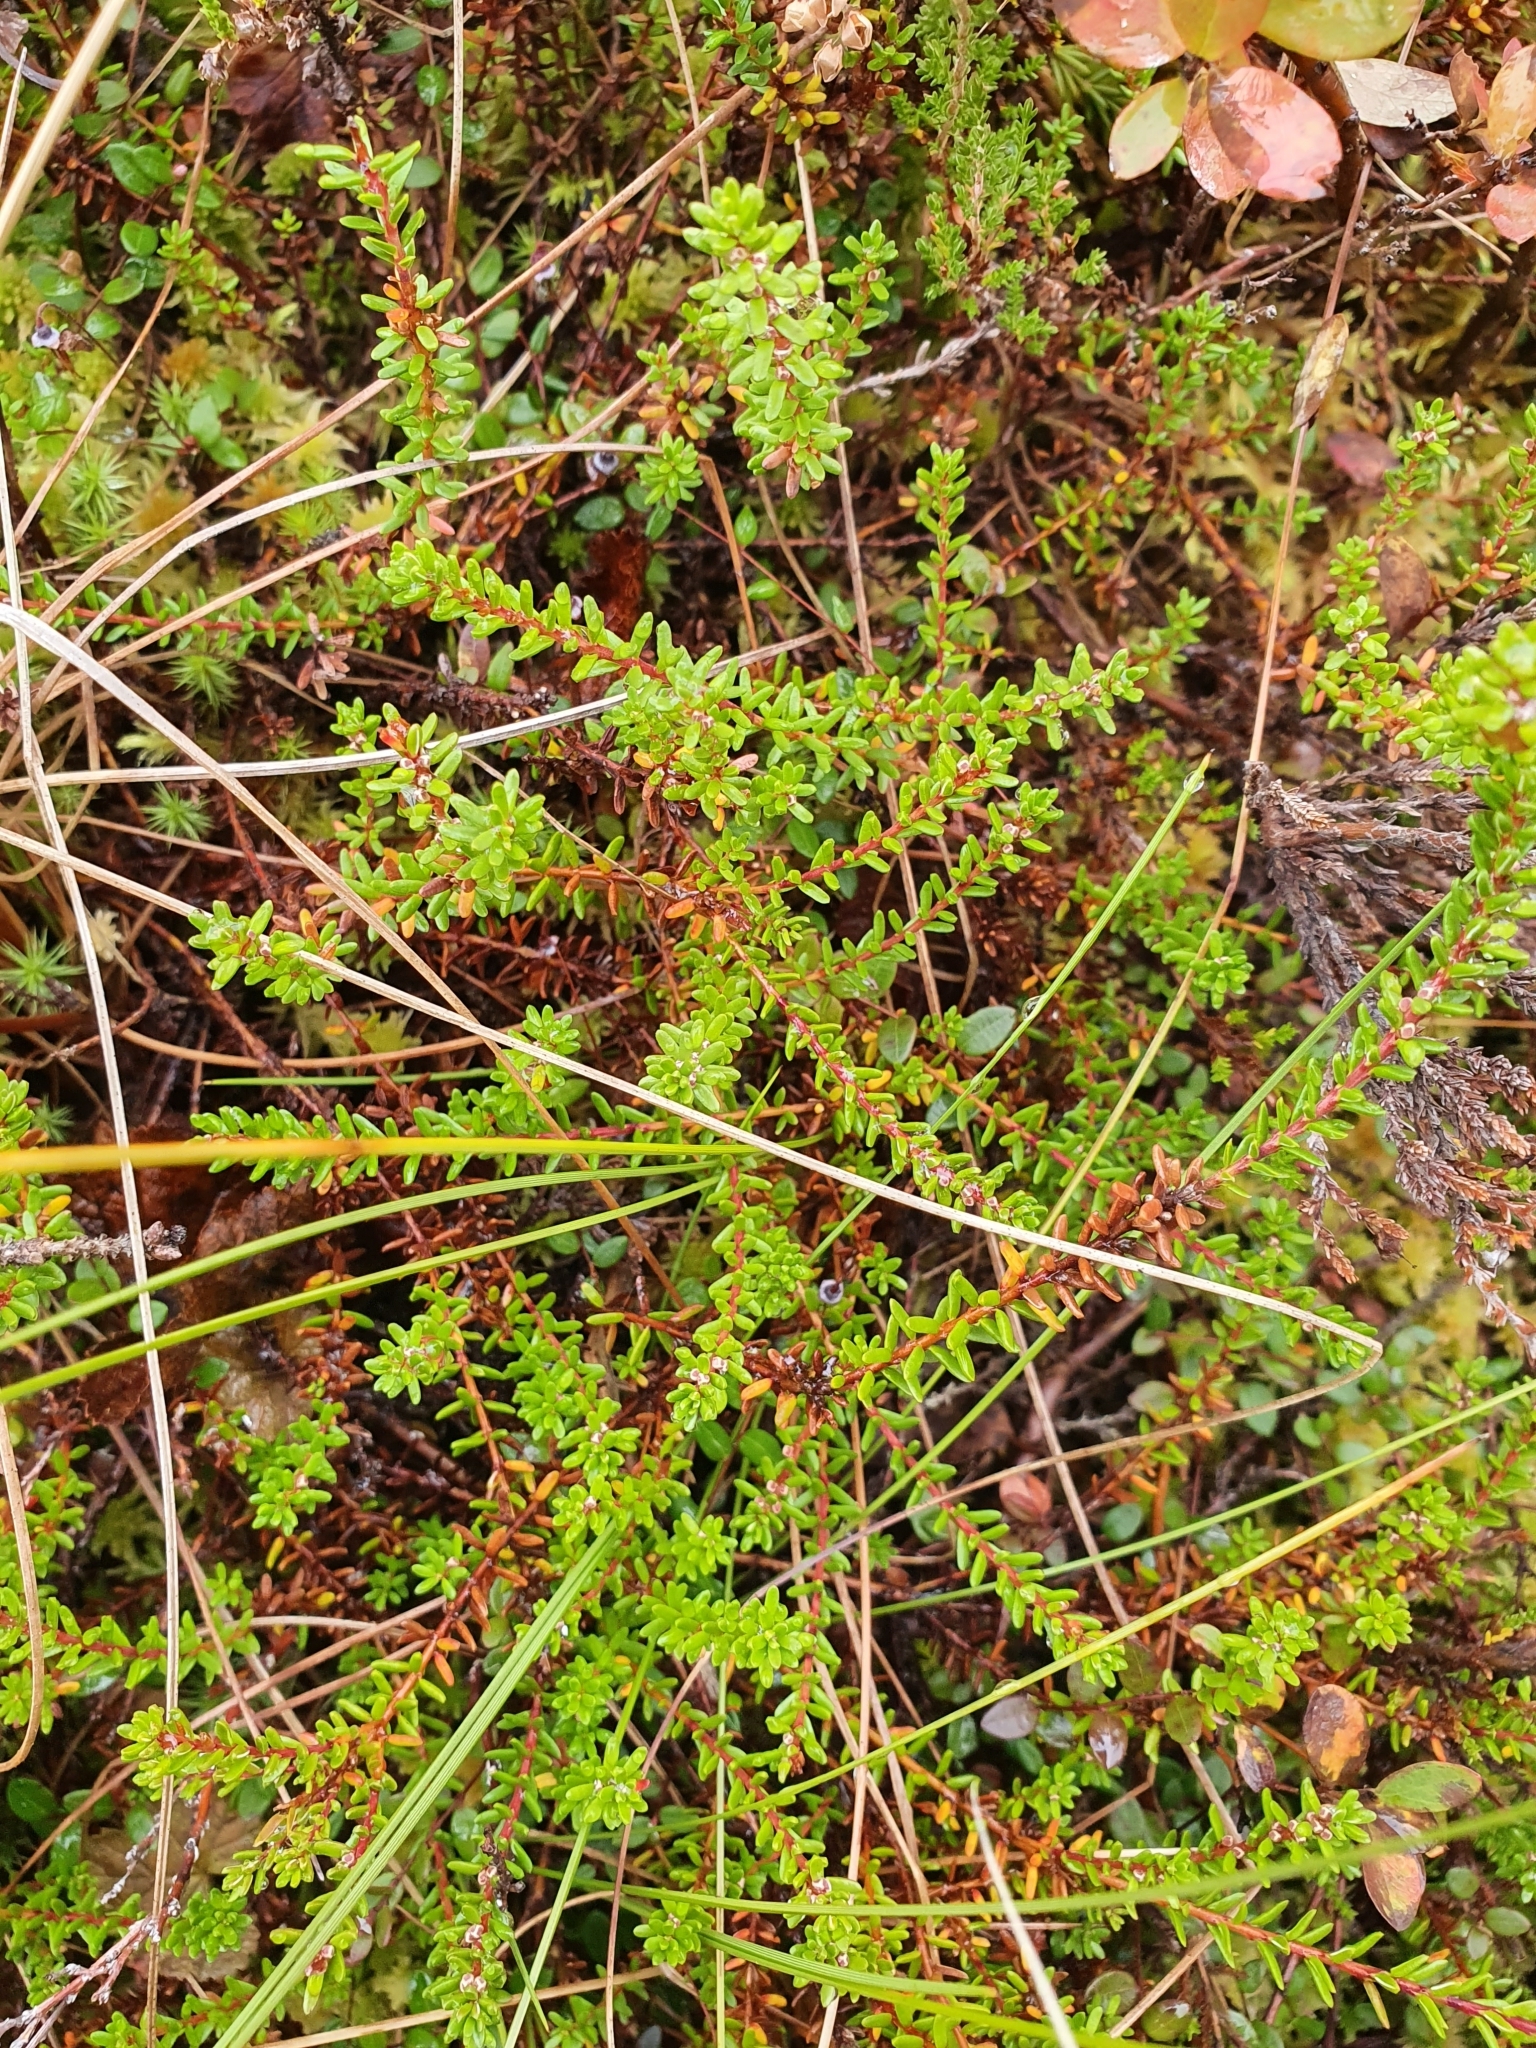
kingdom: Plantae
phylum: Tracheophyta
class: Magnoliopsida
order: Ericales
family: Ericaceae
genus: Empetrum
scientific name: Empetrum nigrum
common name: Black crowberry
